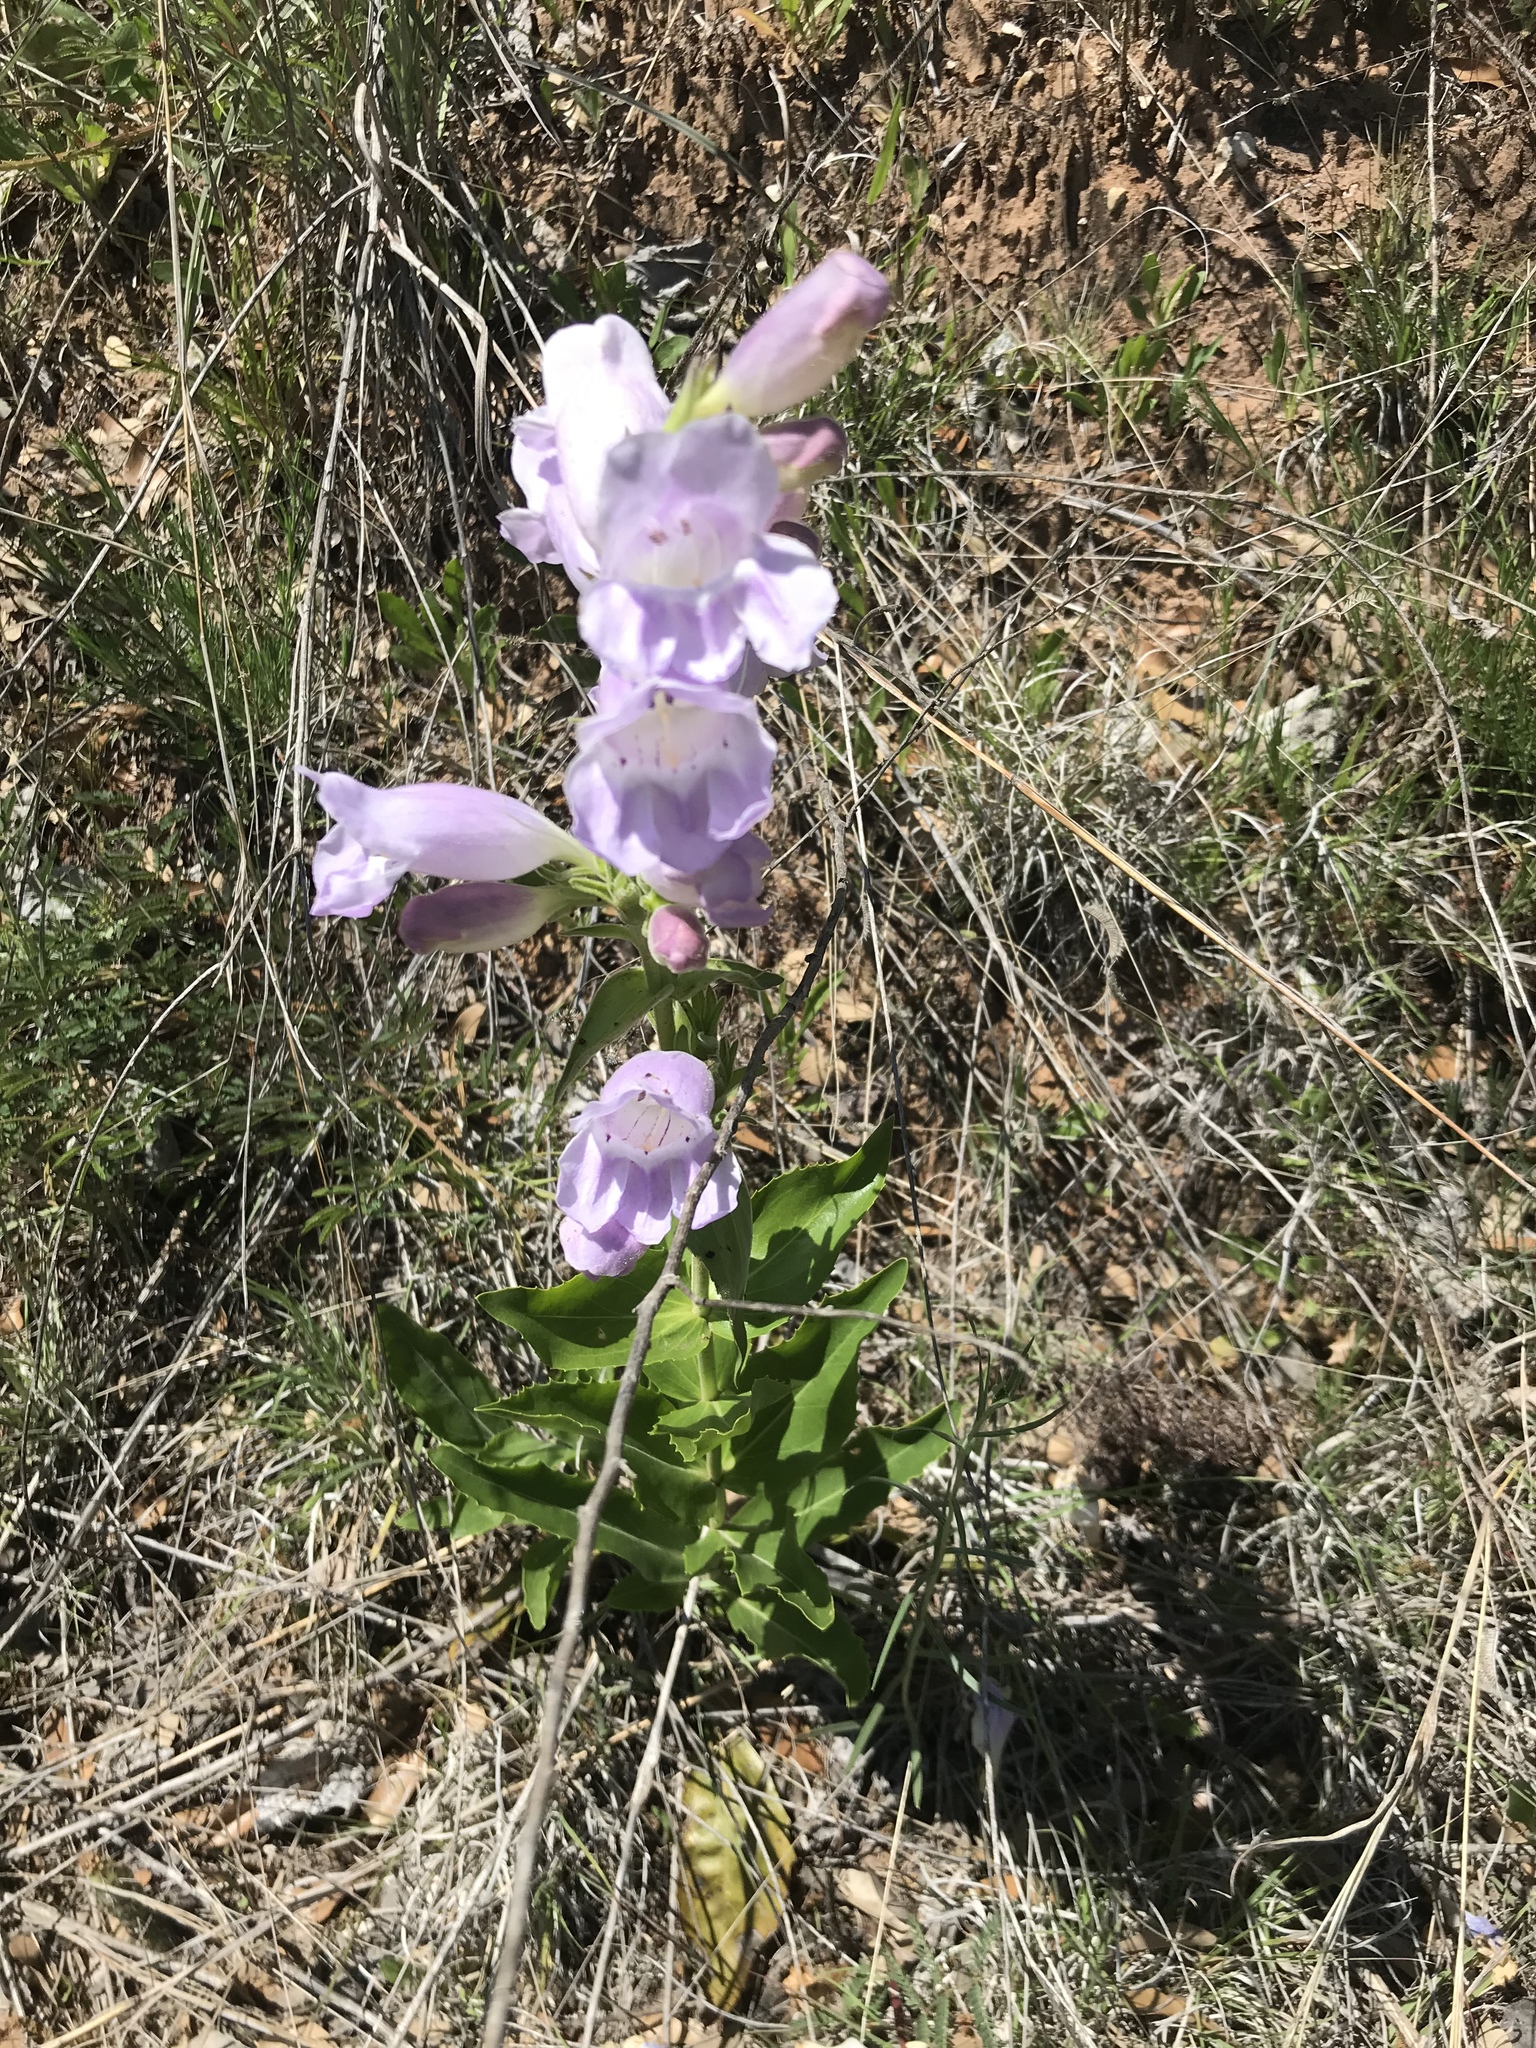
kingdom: Plantae
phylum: Tracheophyta
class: Magnoliopsida
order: Lamiales
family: Plantaginaceae
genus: Penstemon
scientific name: Penstemon cobaea
